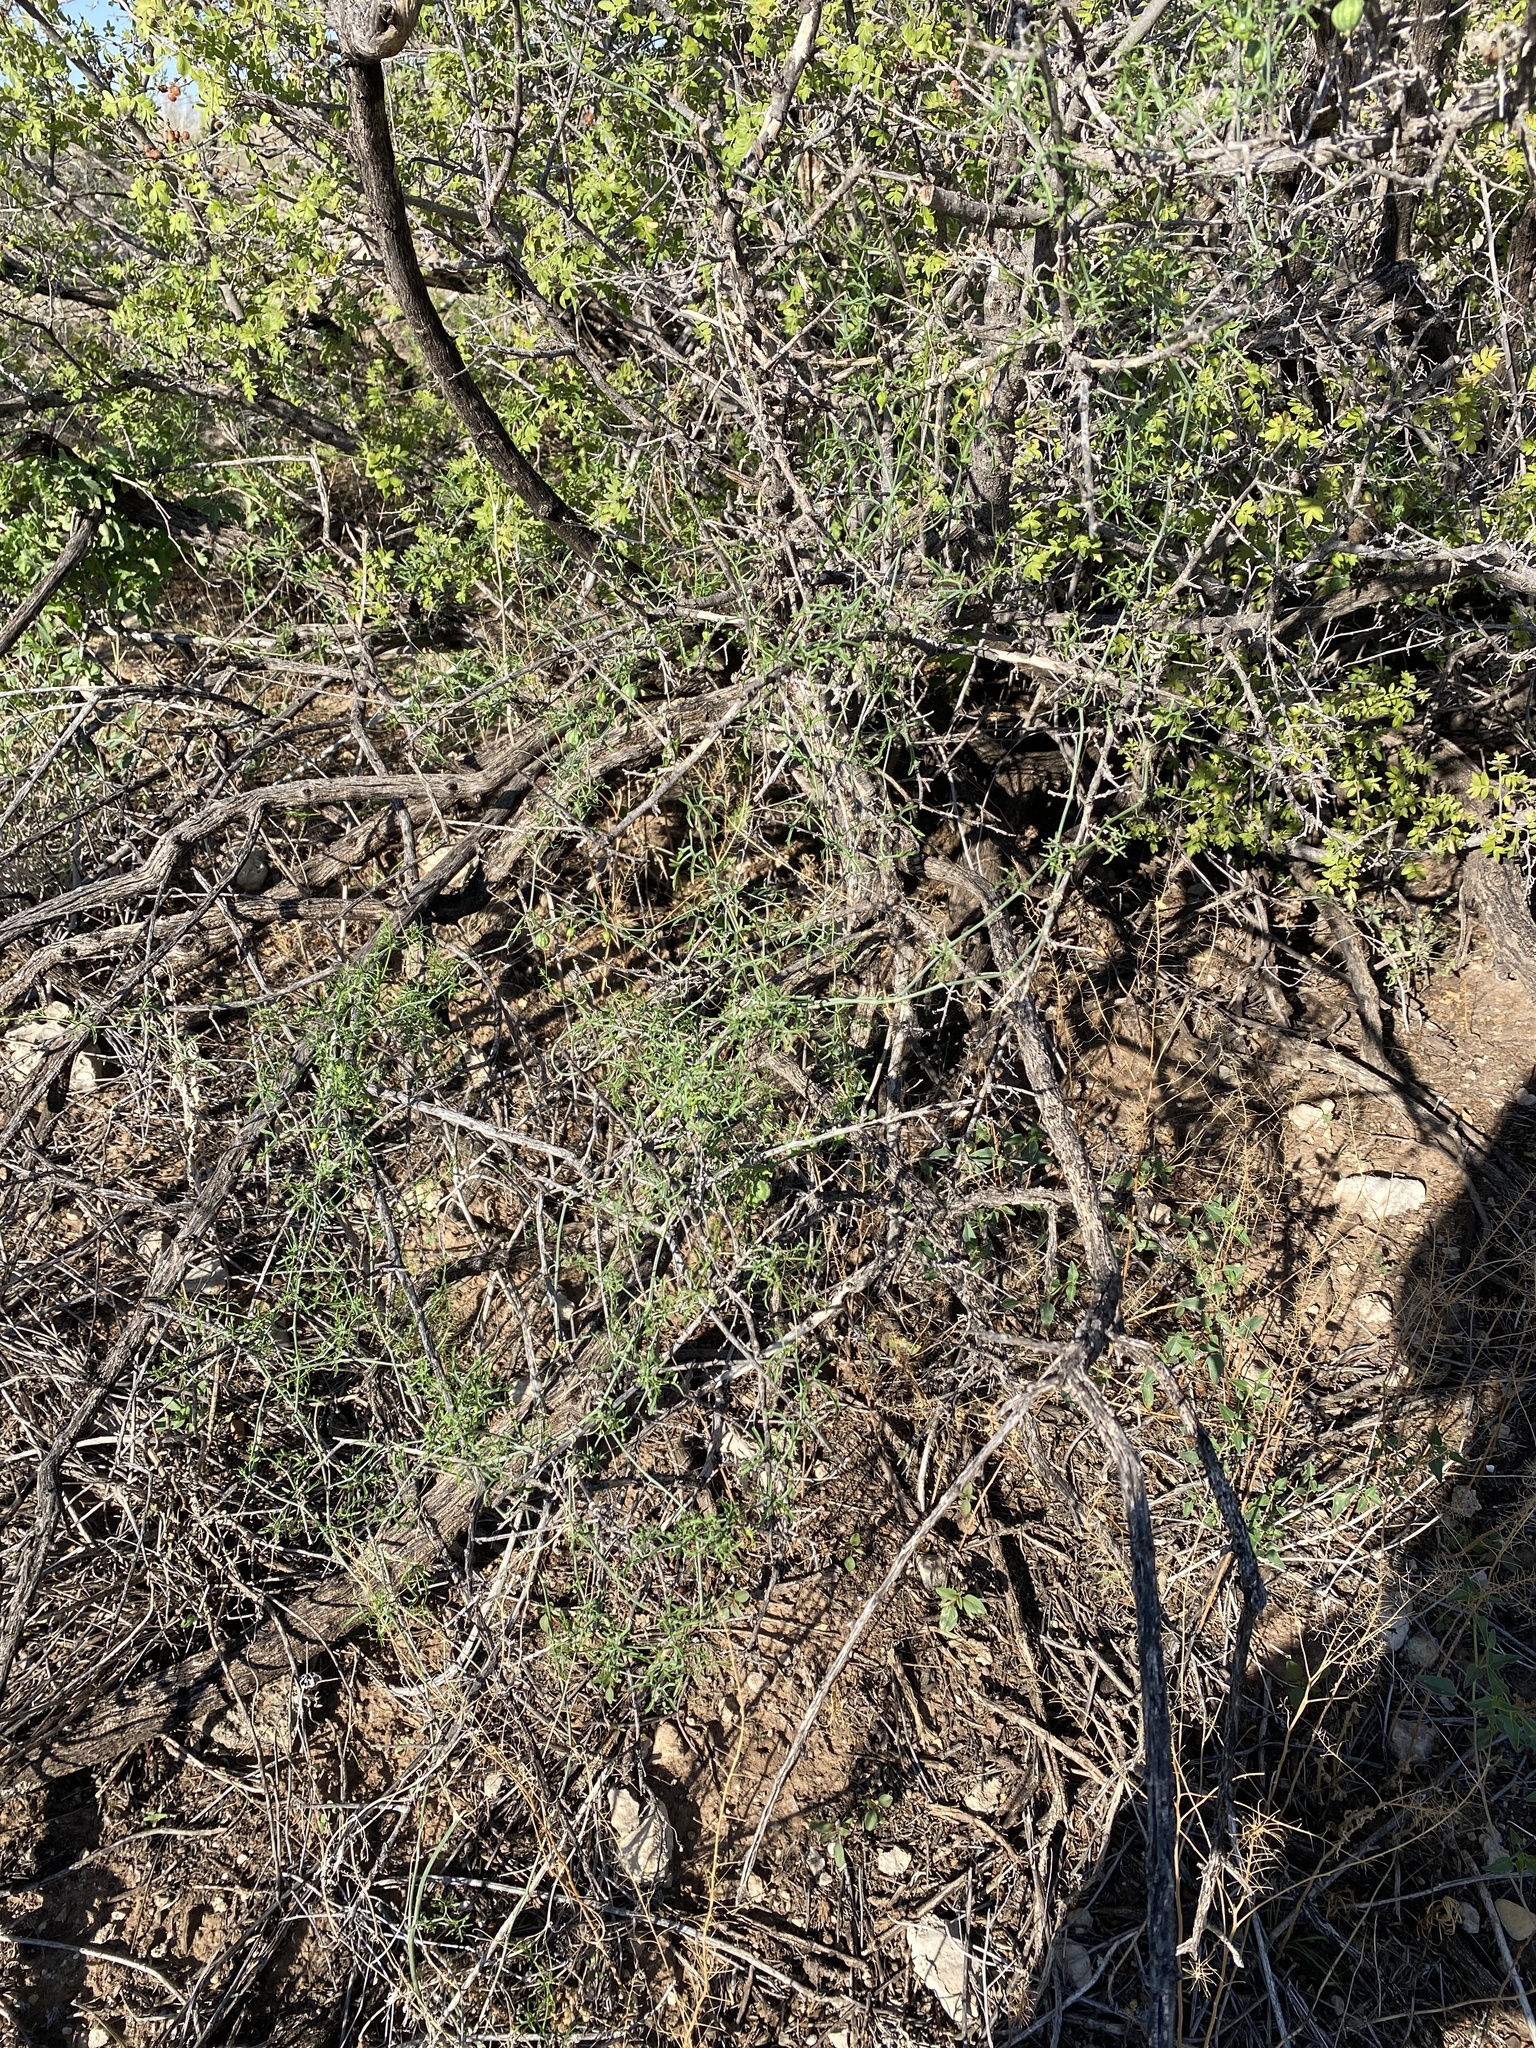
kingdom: Plantae
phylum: Tracheophyta
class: Magnoliopsida
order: Cucurbitales
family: Cucurbitaceae
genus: Ibervillea
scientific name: Ibervillea tenuisecta
